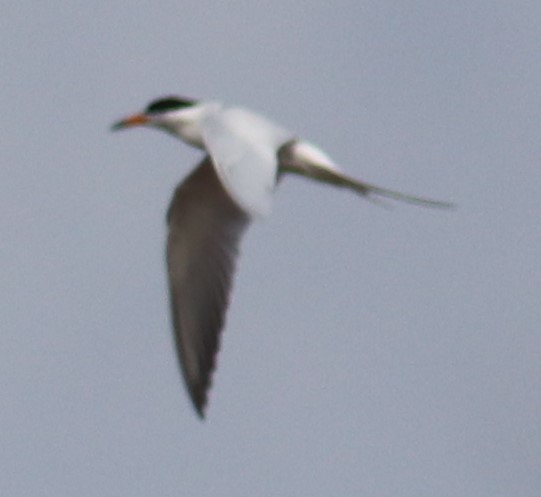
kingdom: Animalia
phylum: Chordata
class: Aves
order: Charadriiformes
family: Laridae
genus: Sterna
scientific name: Sterna forsteri
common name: Forster's tern
